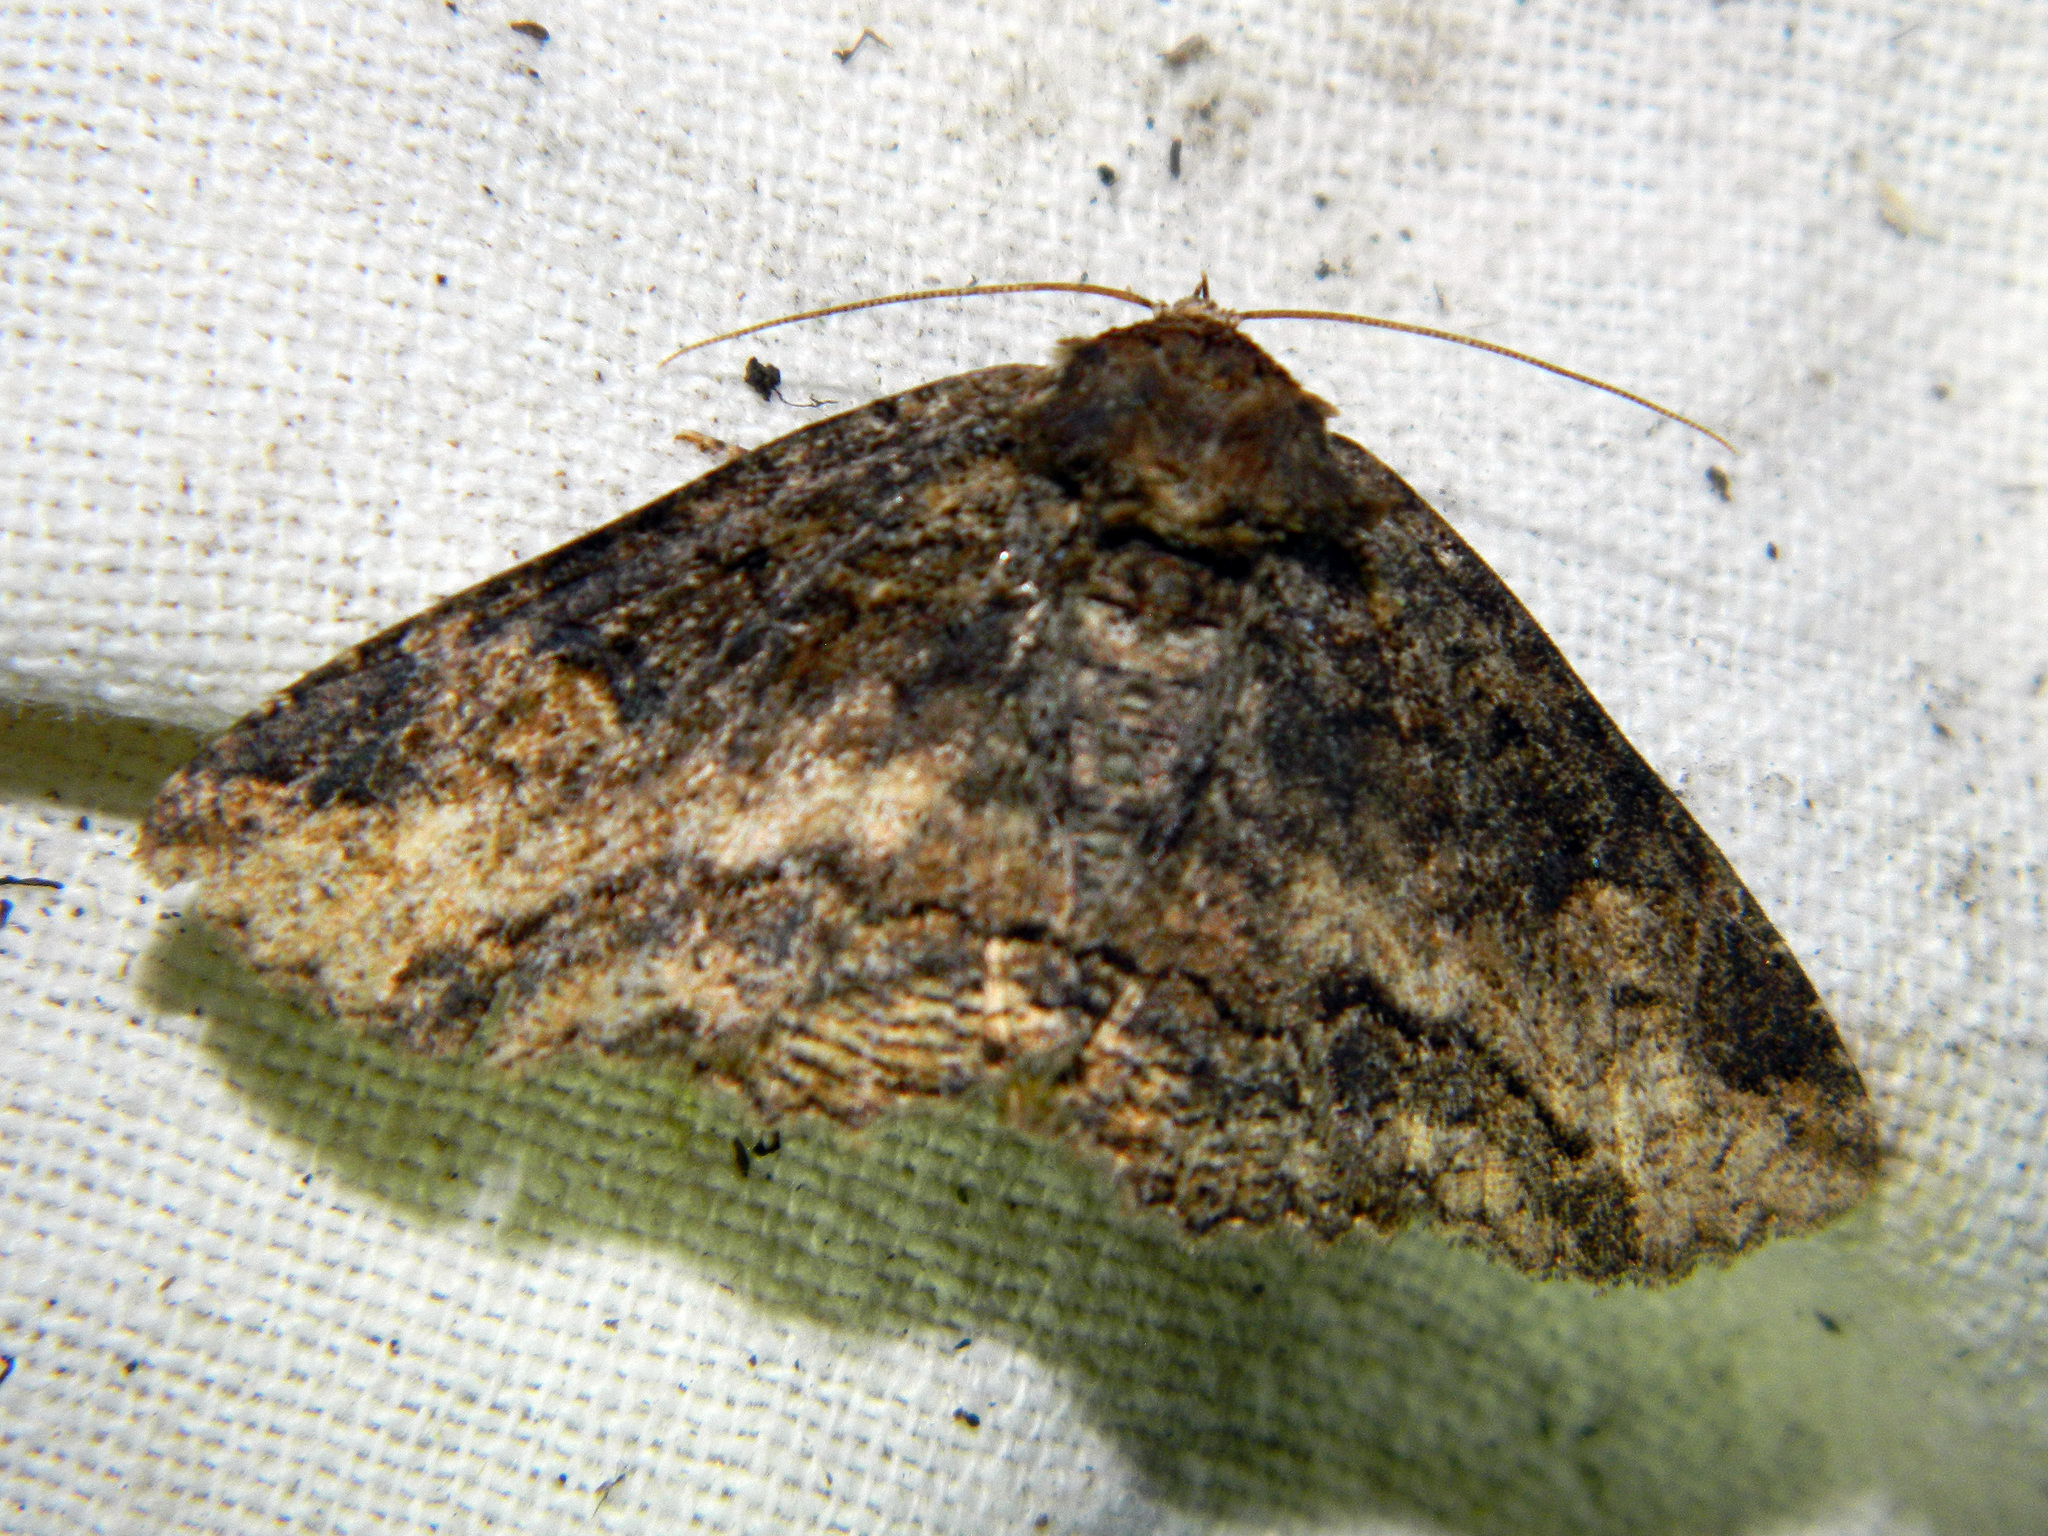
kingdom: Animalia
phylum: Arthropoda
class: Insecta
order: Lepidoptera
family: Erebidae
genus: Zale
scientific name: Zale minerea
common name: Colorful zale moth
